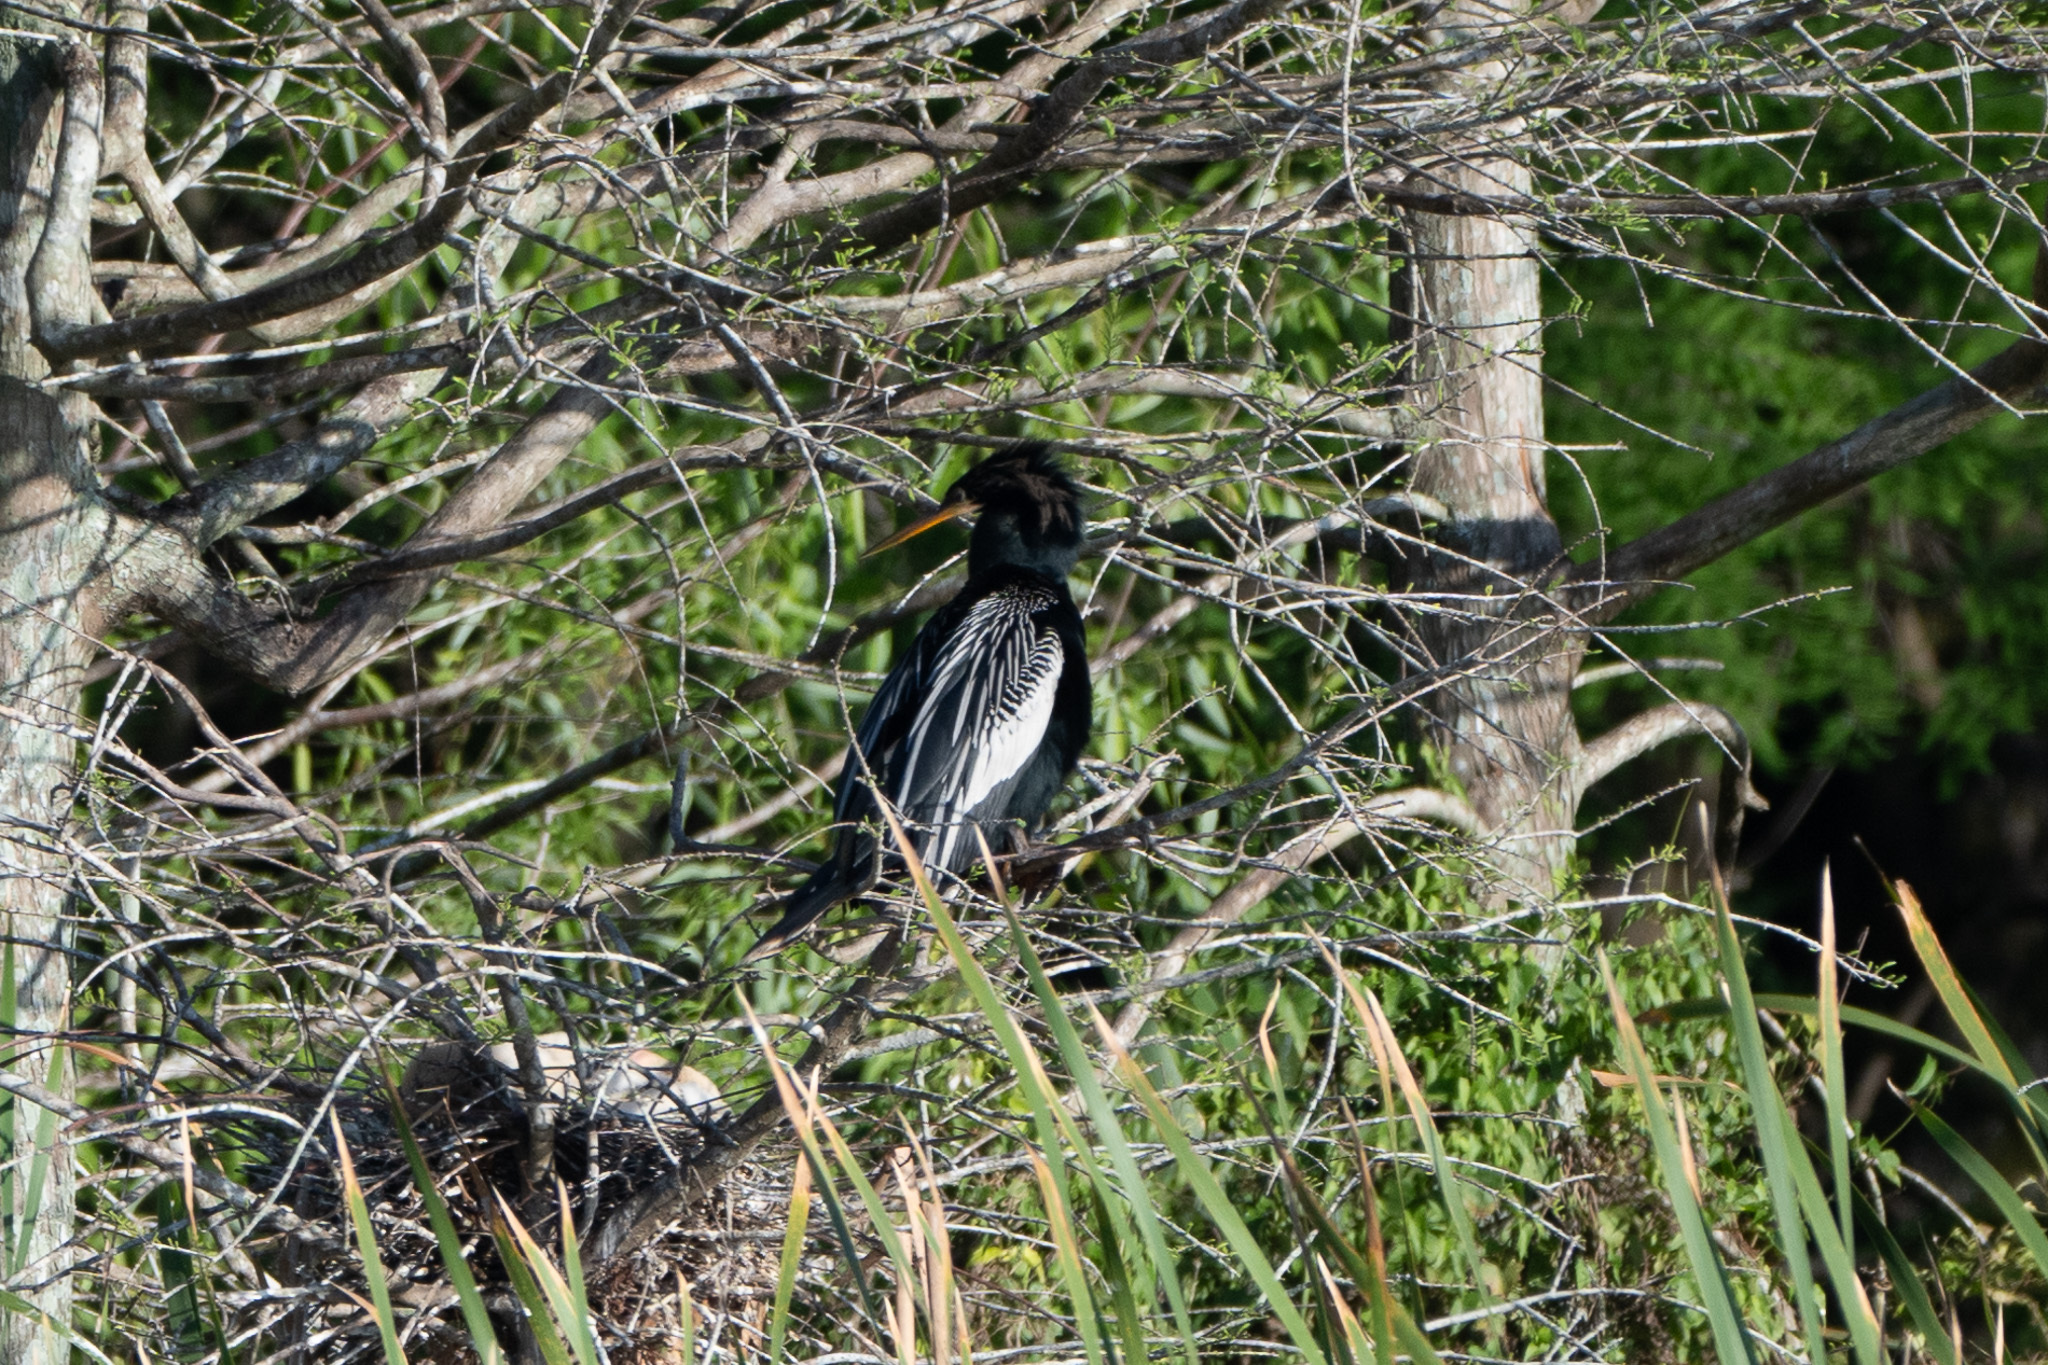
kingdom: Animalia
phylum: Chordata
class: Aves
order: Suliformes
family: Anhingidae
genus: Anhinga
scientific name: Anhinga anhinga
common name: Anhinga
